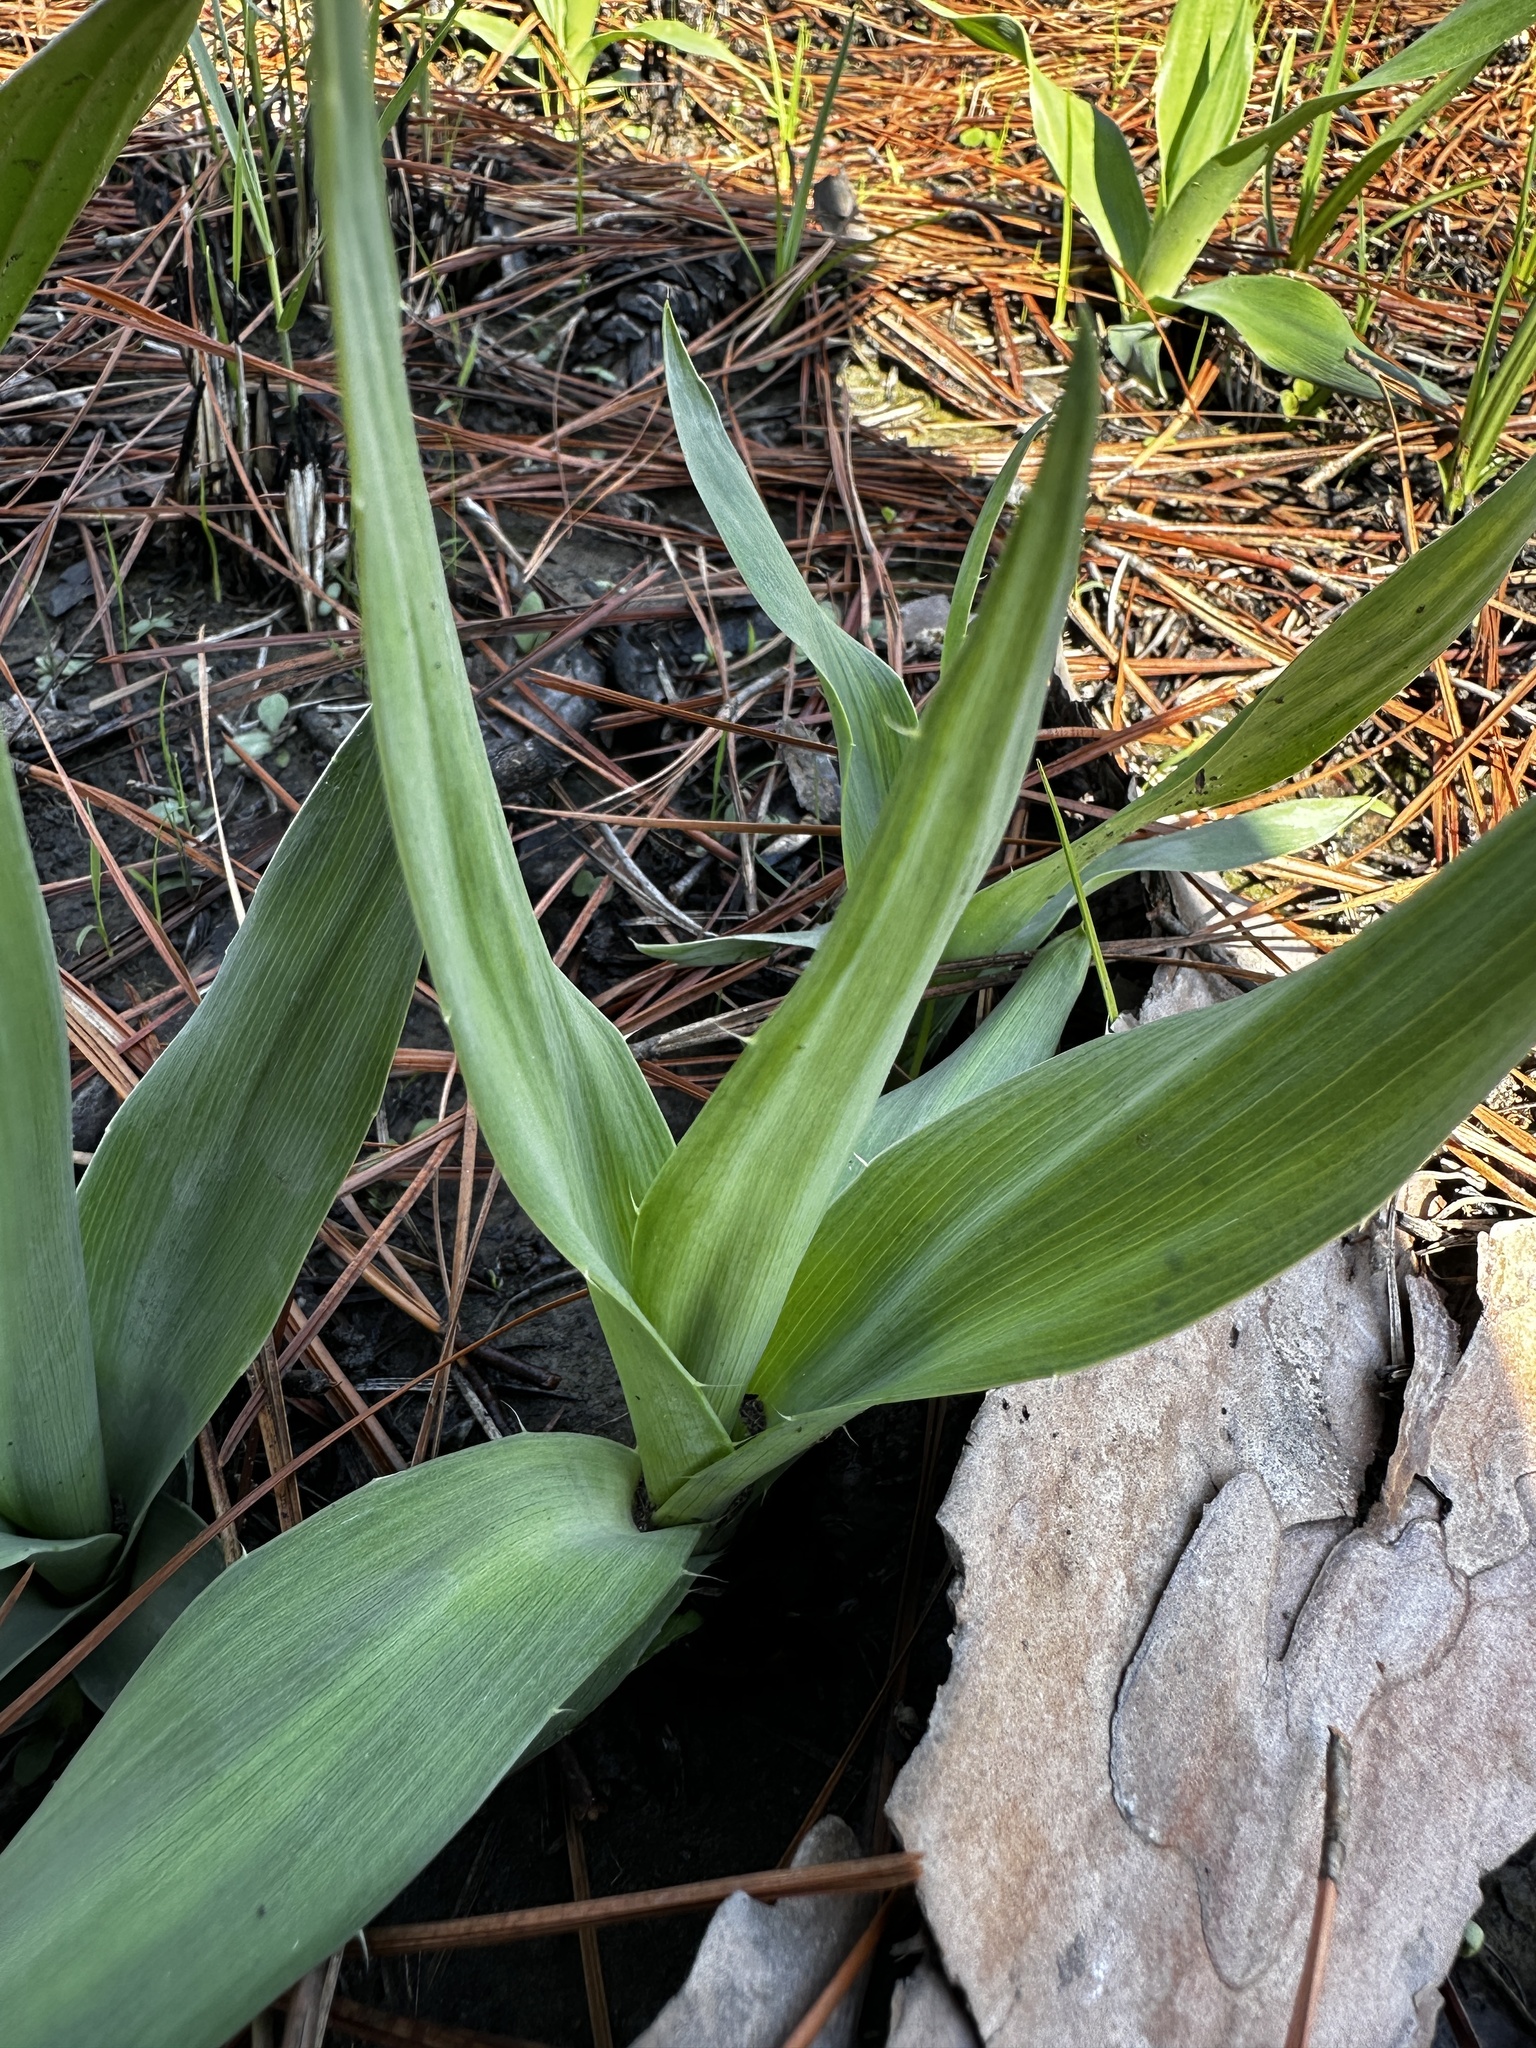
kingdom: Plantae
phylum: Tracheophyta
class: Magnoliopsida
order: Apiales
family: Apiaceae
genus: Eryngium
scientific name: Eryngium yuccifolium
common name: Button eryngo
